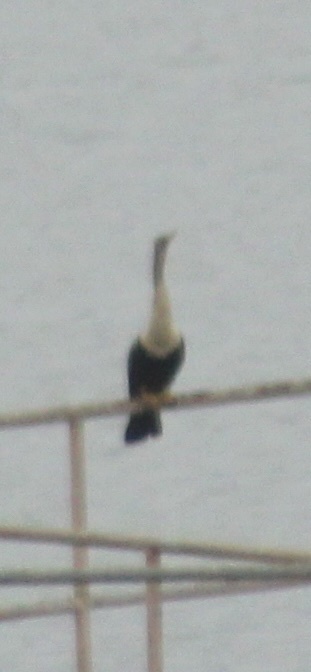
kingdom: Animalia
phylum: Chordata
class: Aves
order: Suliformes
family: Anhingidae
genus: Anhinga
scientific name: Anhinga anhinga
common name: Anhinga
